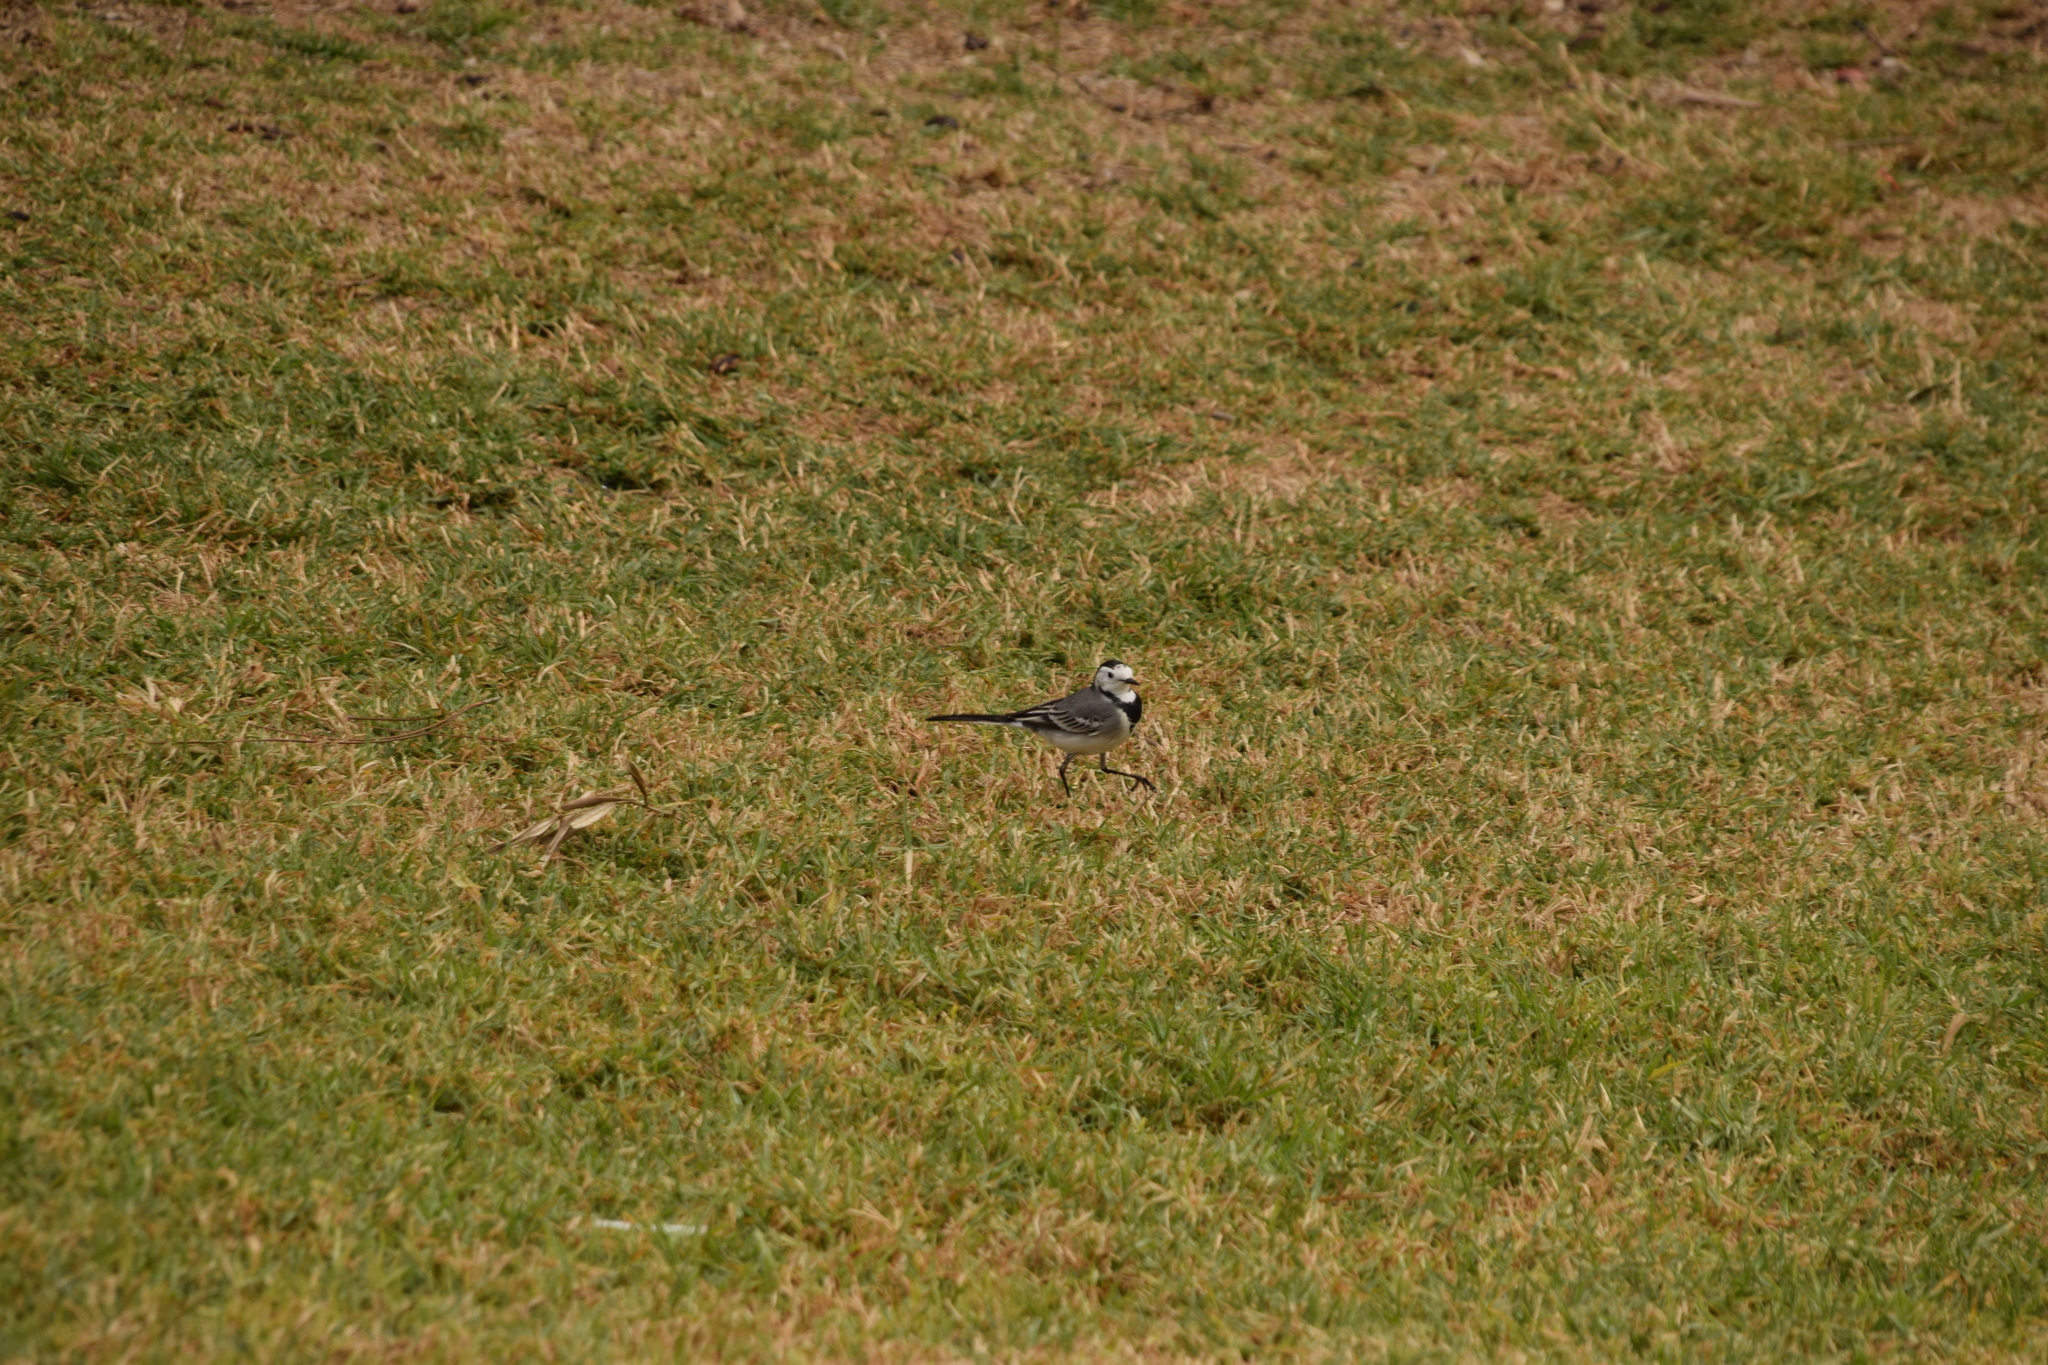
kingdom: Animalia
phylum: Chordata
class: Aves
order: Passeriformes
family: Motacillidae
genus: Motacilla
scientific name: Motacilla alba
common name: White wagtail
